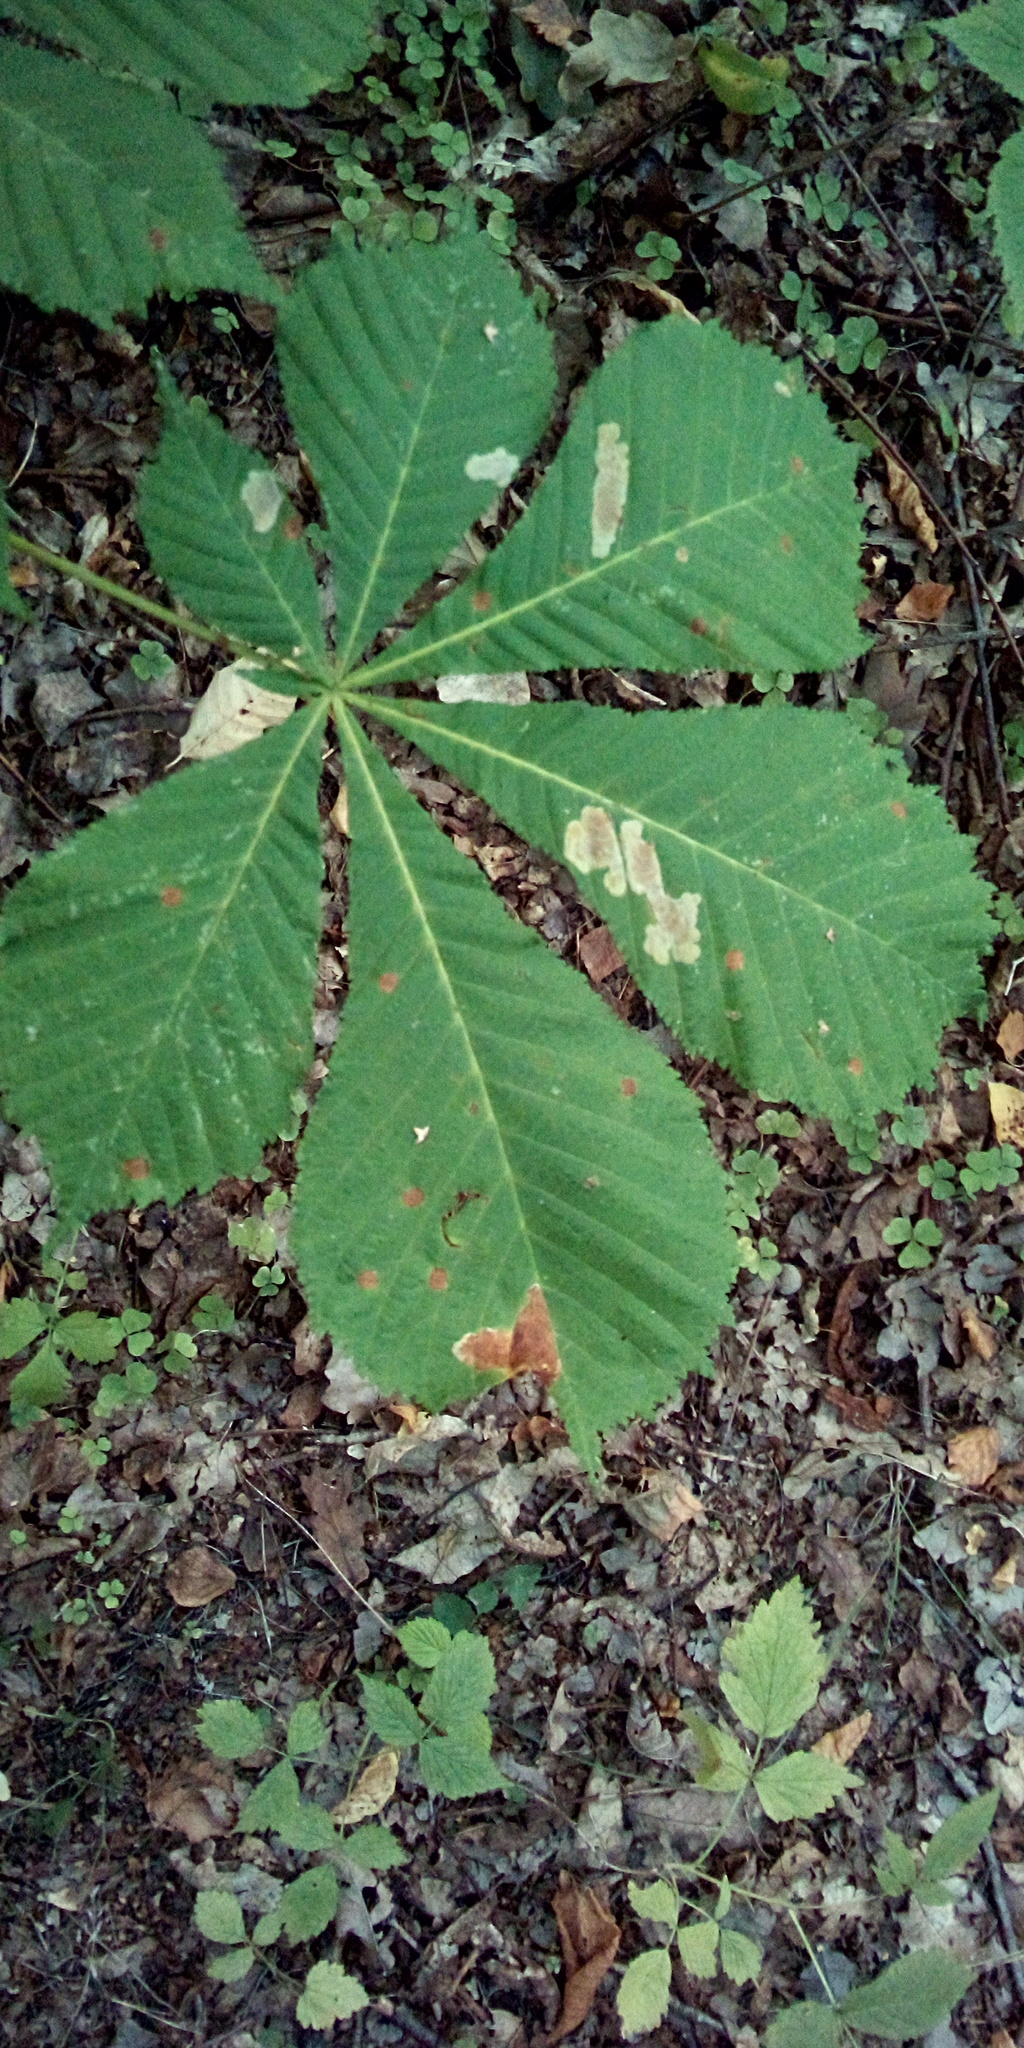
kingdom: Animalia
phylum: Arthropoda
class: Insecta
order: Lepidoptera
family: Gracillariidae
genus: Cameraria
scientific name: Cameraria ohridella
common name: Horse-chestnut leaf-miner
